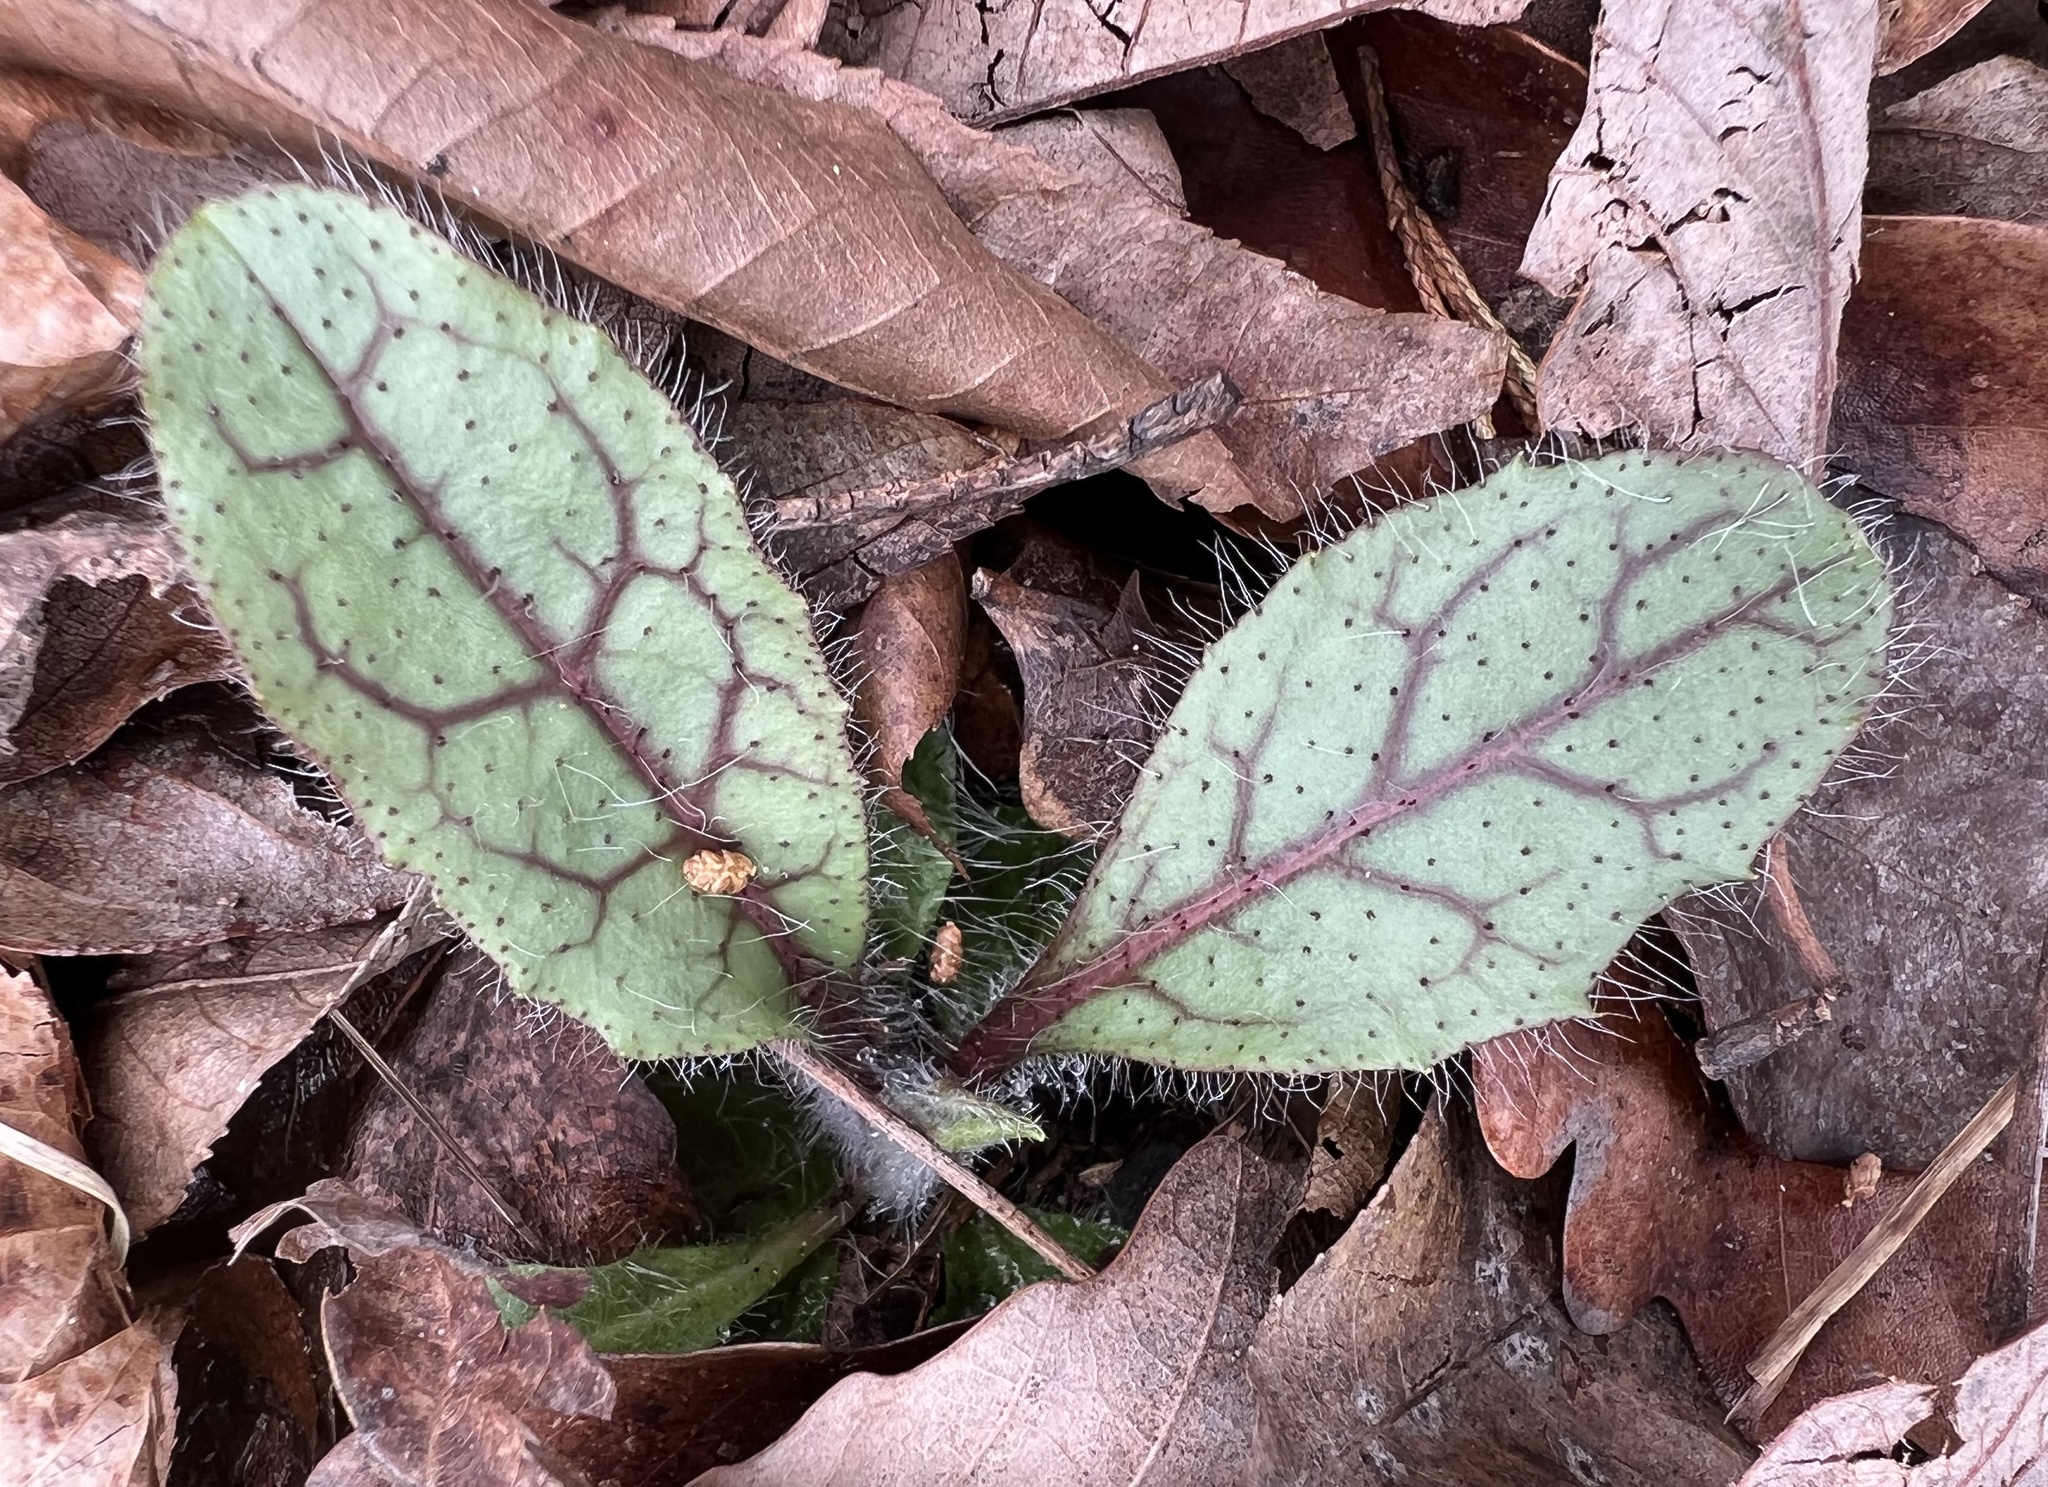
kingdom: Plantae
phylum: Tracheophyta
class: Magnoliopsida
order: Asterales
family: Asteraceae
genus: Hieracium
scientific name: Hieracium venosum
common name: Rattlesnake hawkweed
